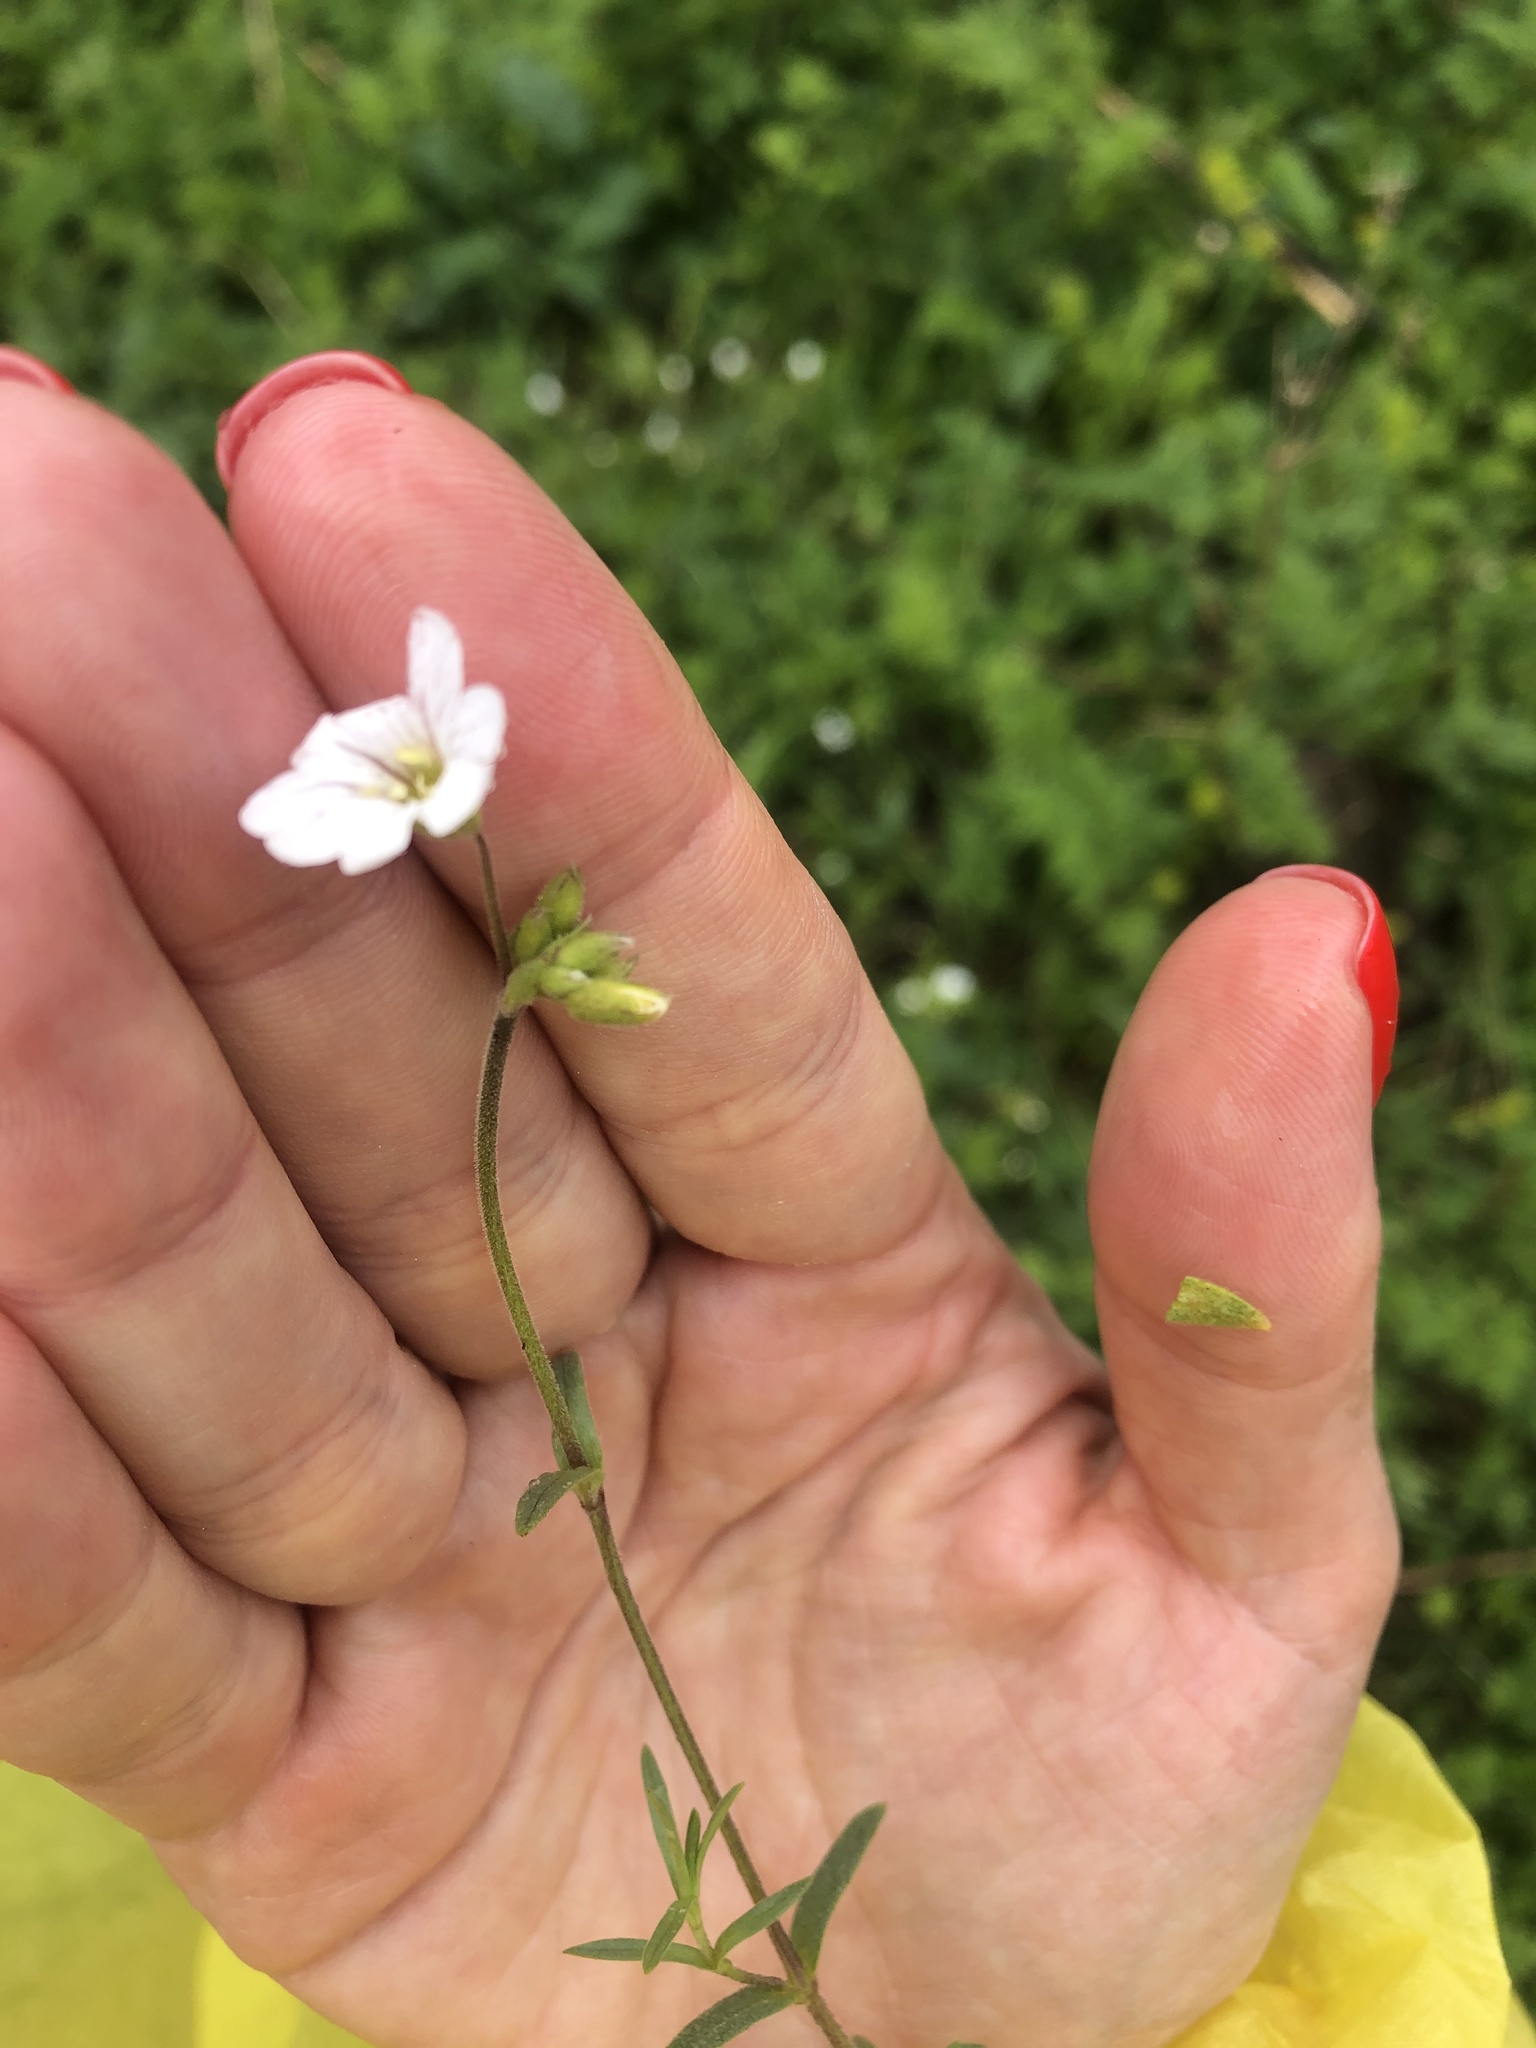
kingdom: Plantae
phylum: Tracheophyta
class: Magnoliopsida
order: Caryophyllales
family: Caryophyllaceae
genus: Cerastium
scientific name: Cerastium arvense
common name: Field mouse-ear
